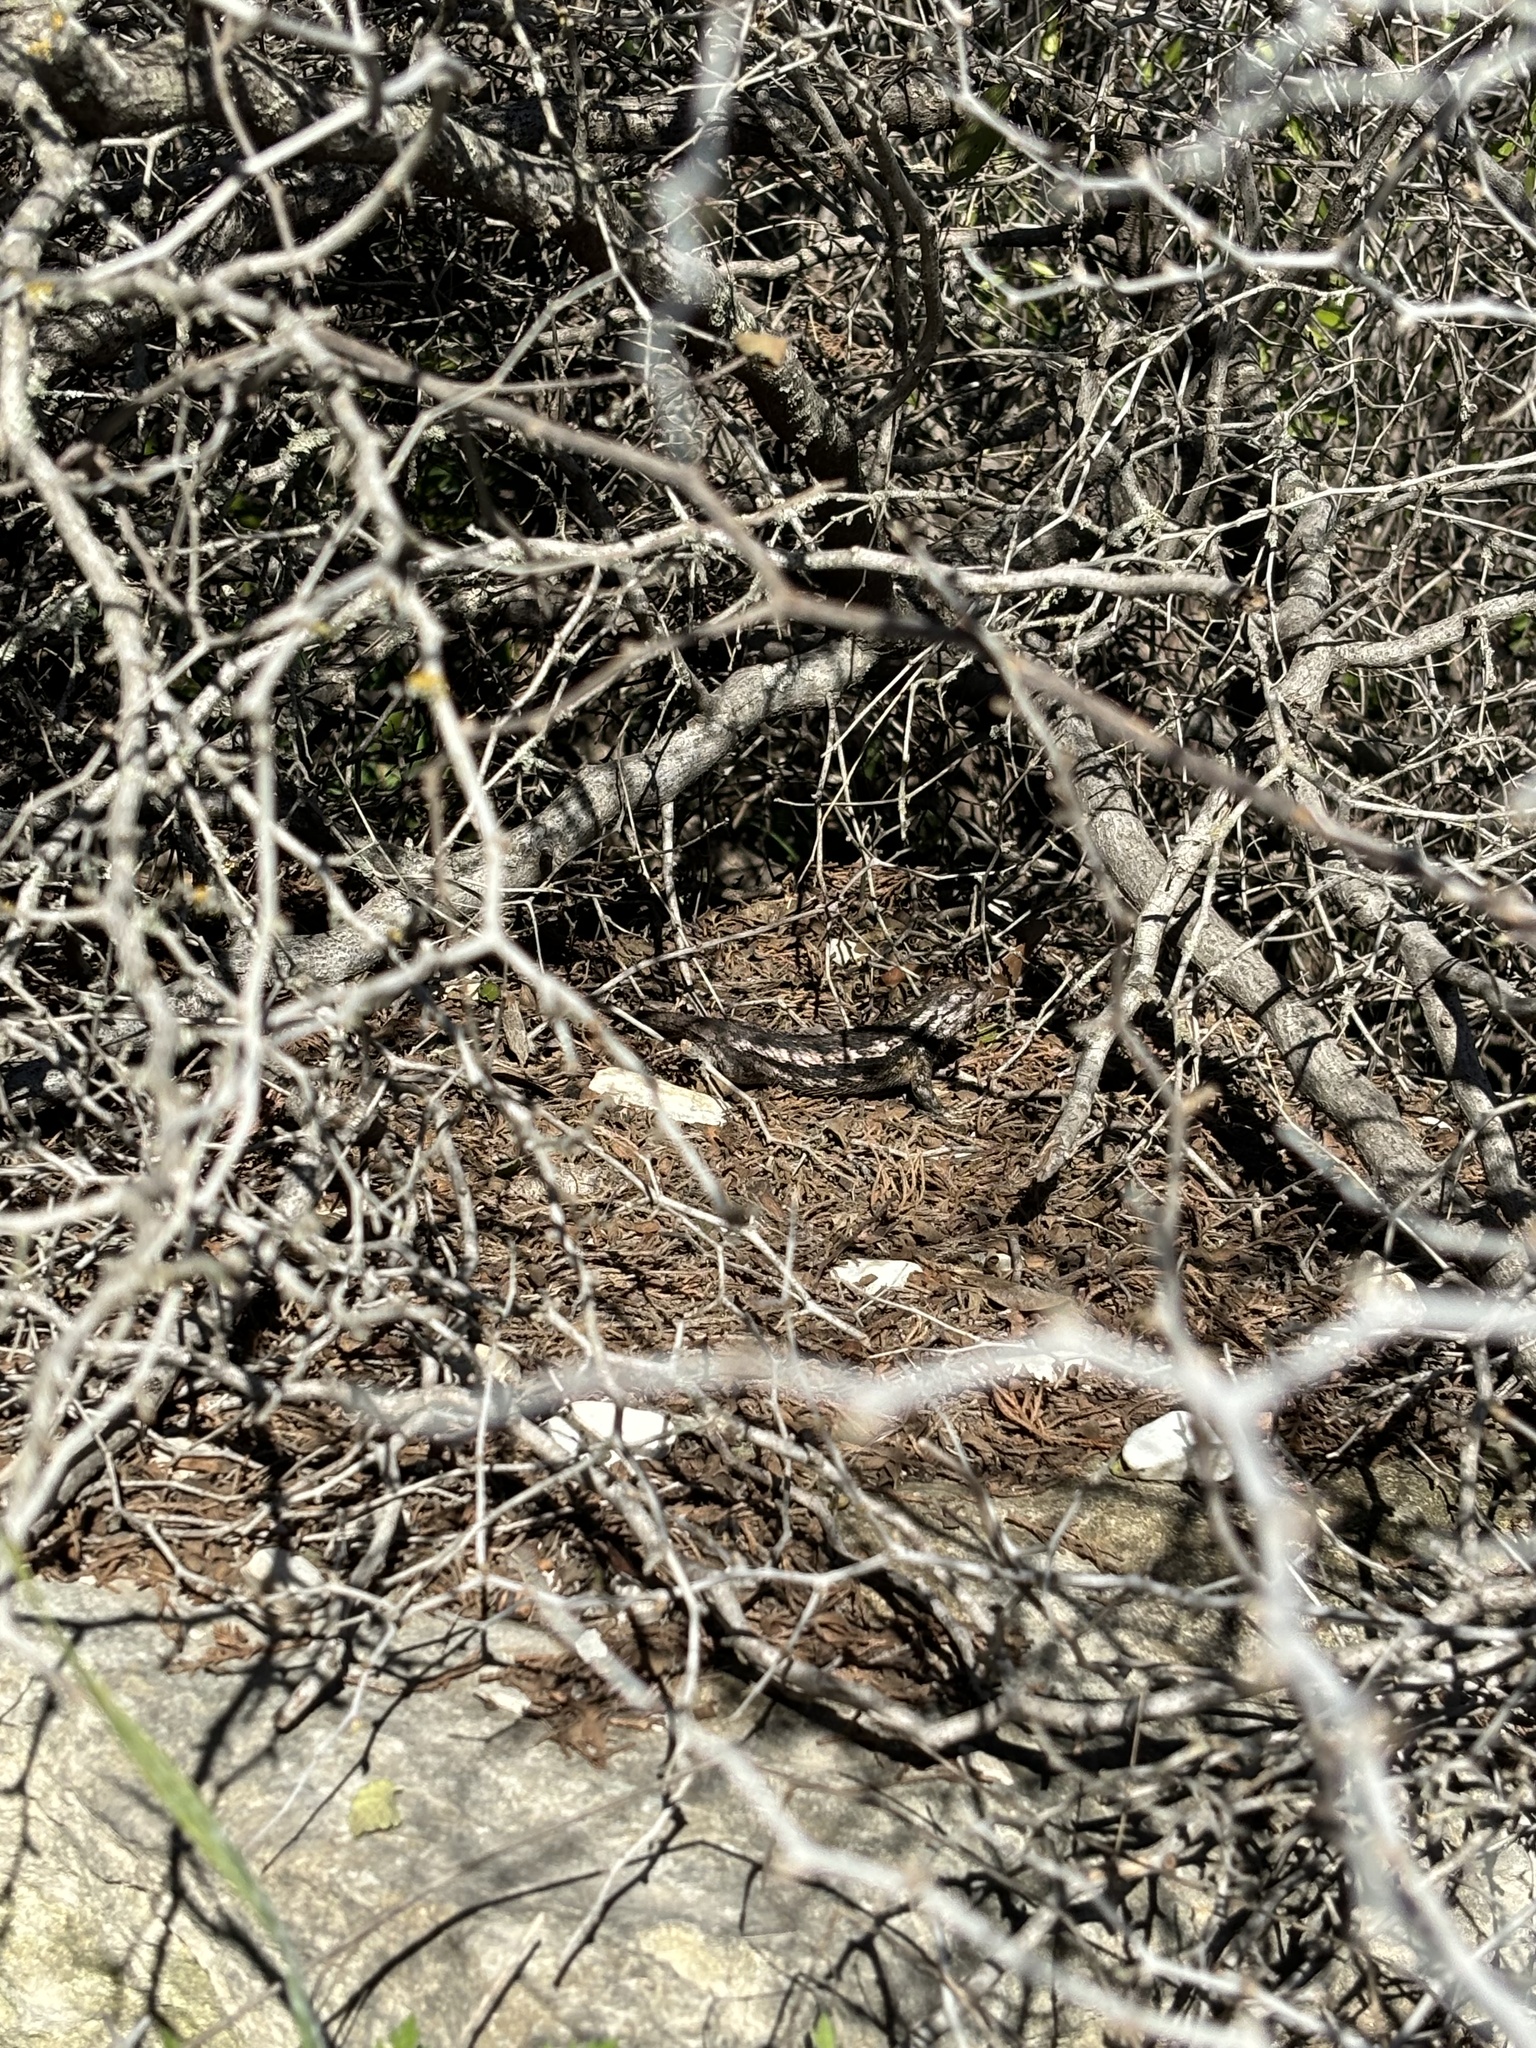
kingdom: Animalia
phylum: Chordata
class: Squamata
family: Phrynosomatidae
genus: Sceloporus
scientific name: Sceloporus olivaceus
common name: Texas spiny lizard
